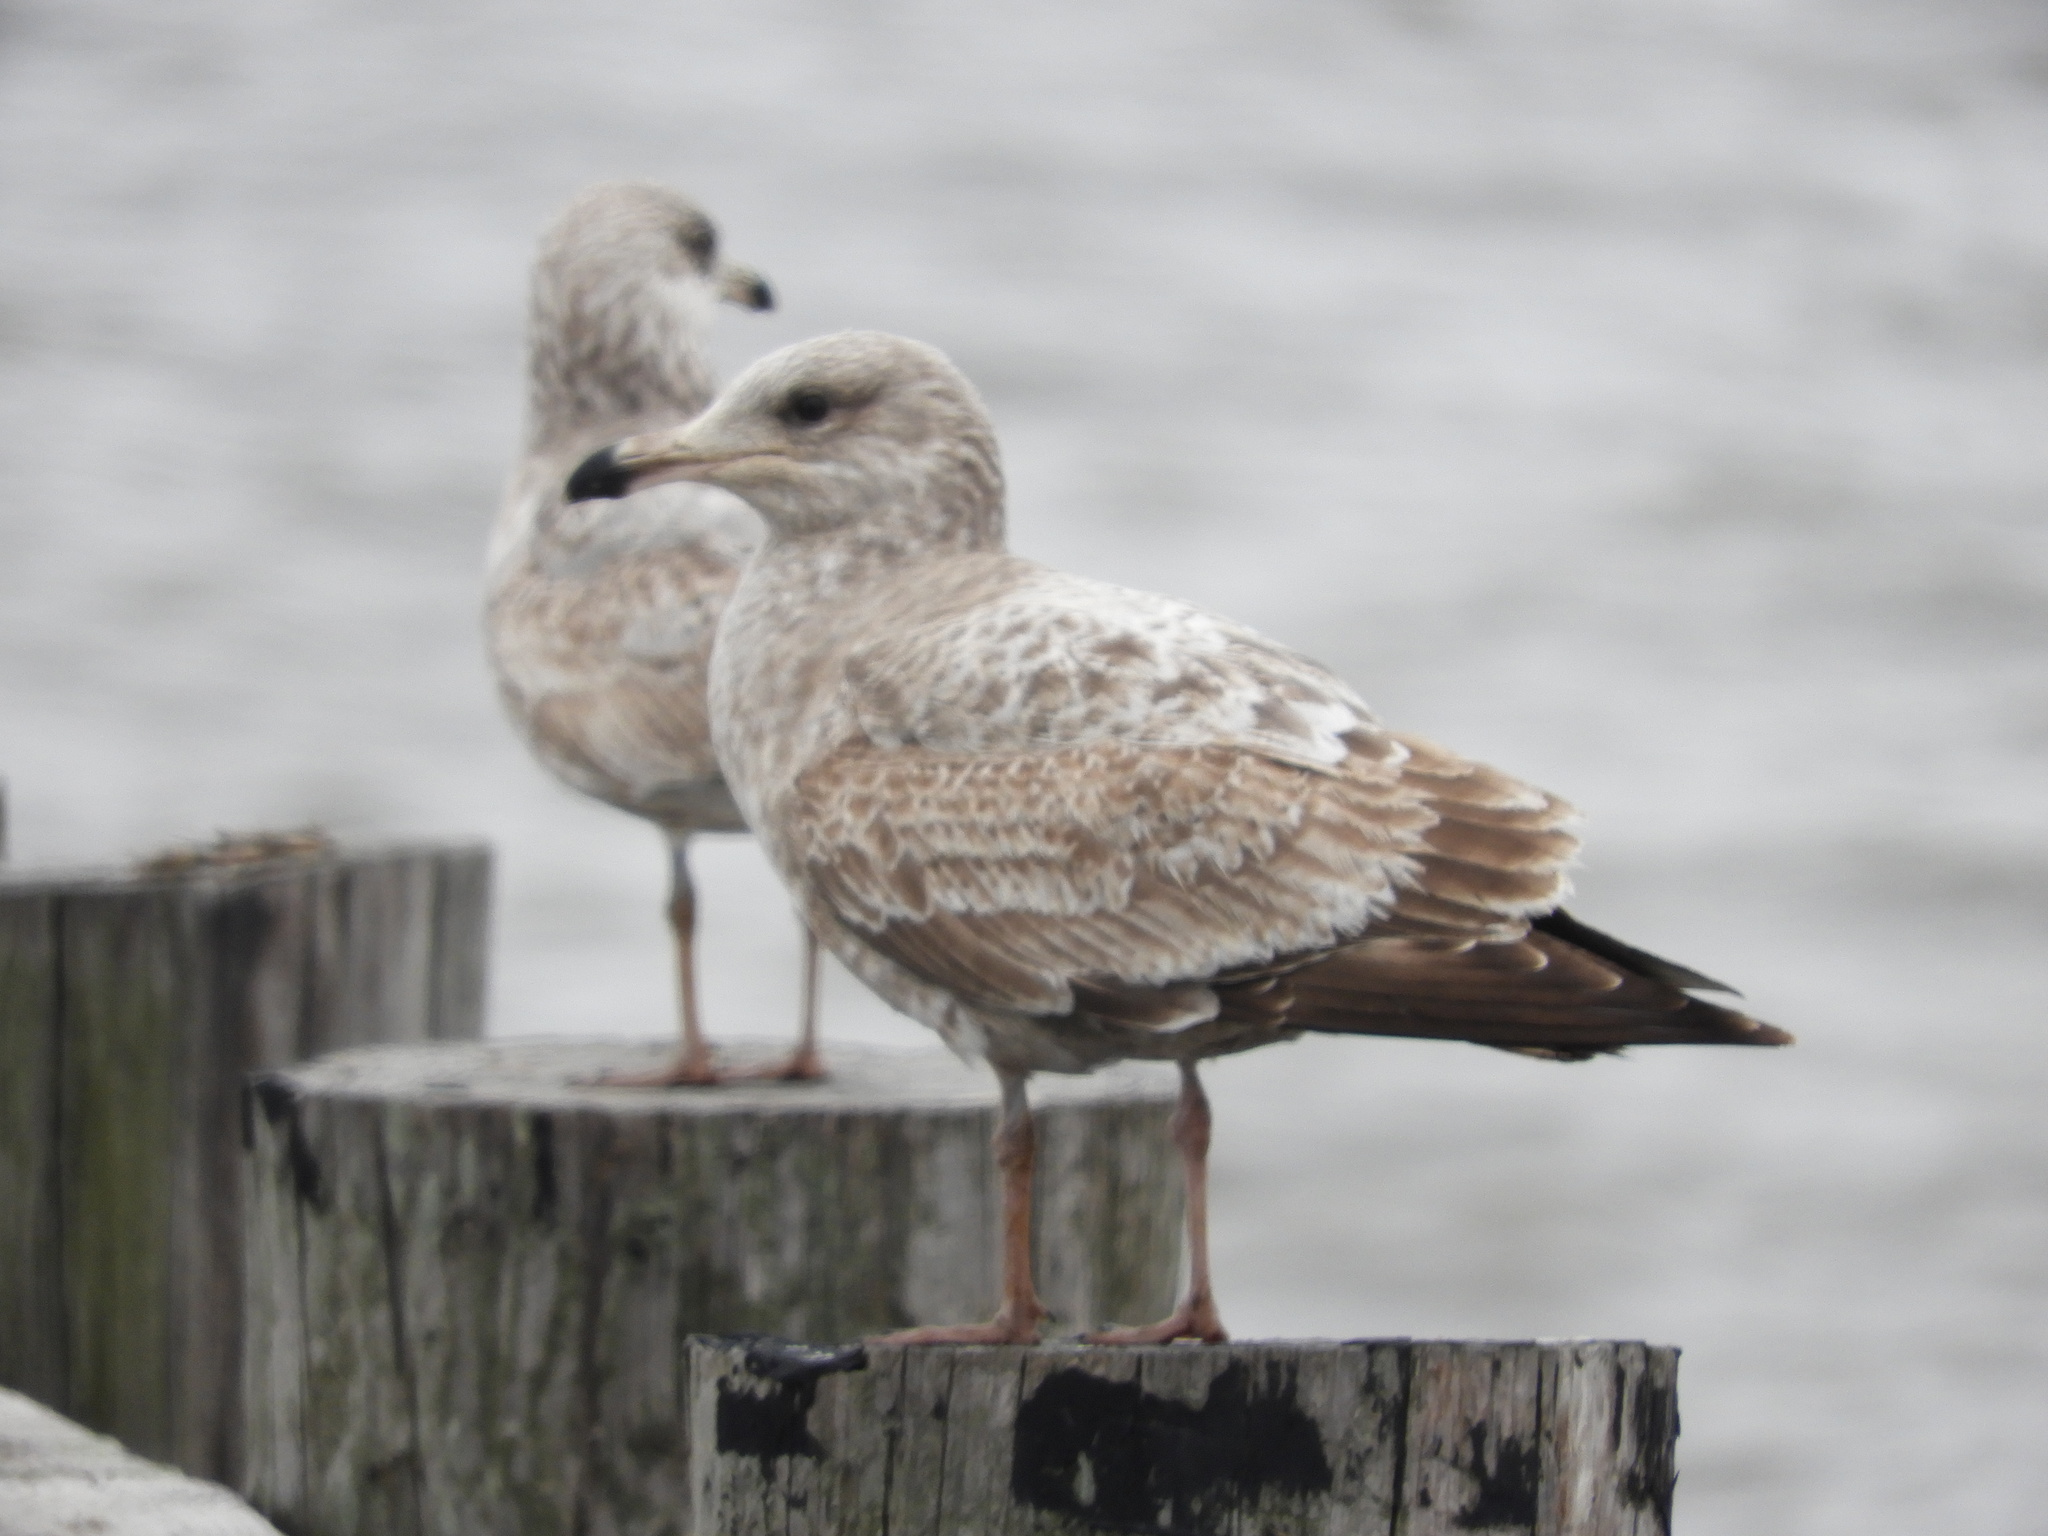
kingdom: Animalia
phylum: Chordata
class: Aves
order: Charadriiformes
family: Laridae
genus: Larus
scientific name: Larus marinus
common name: Great black-backed gull
